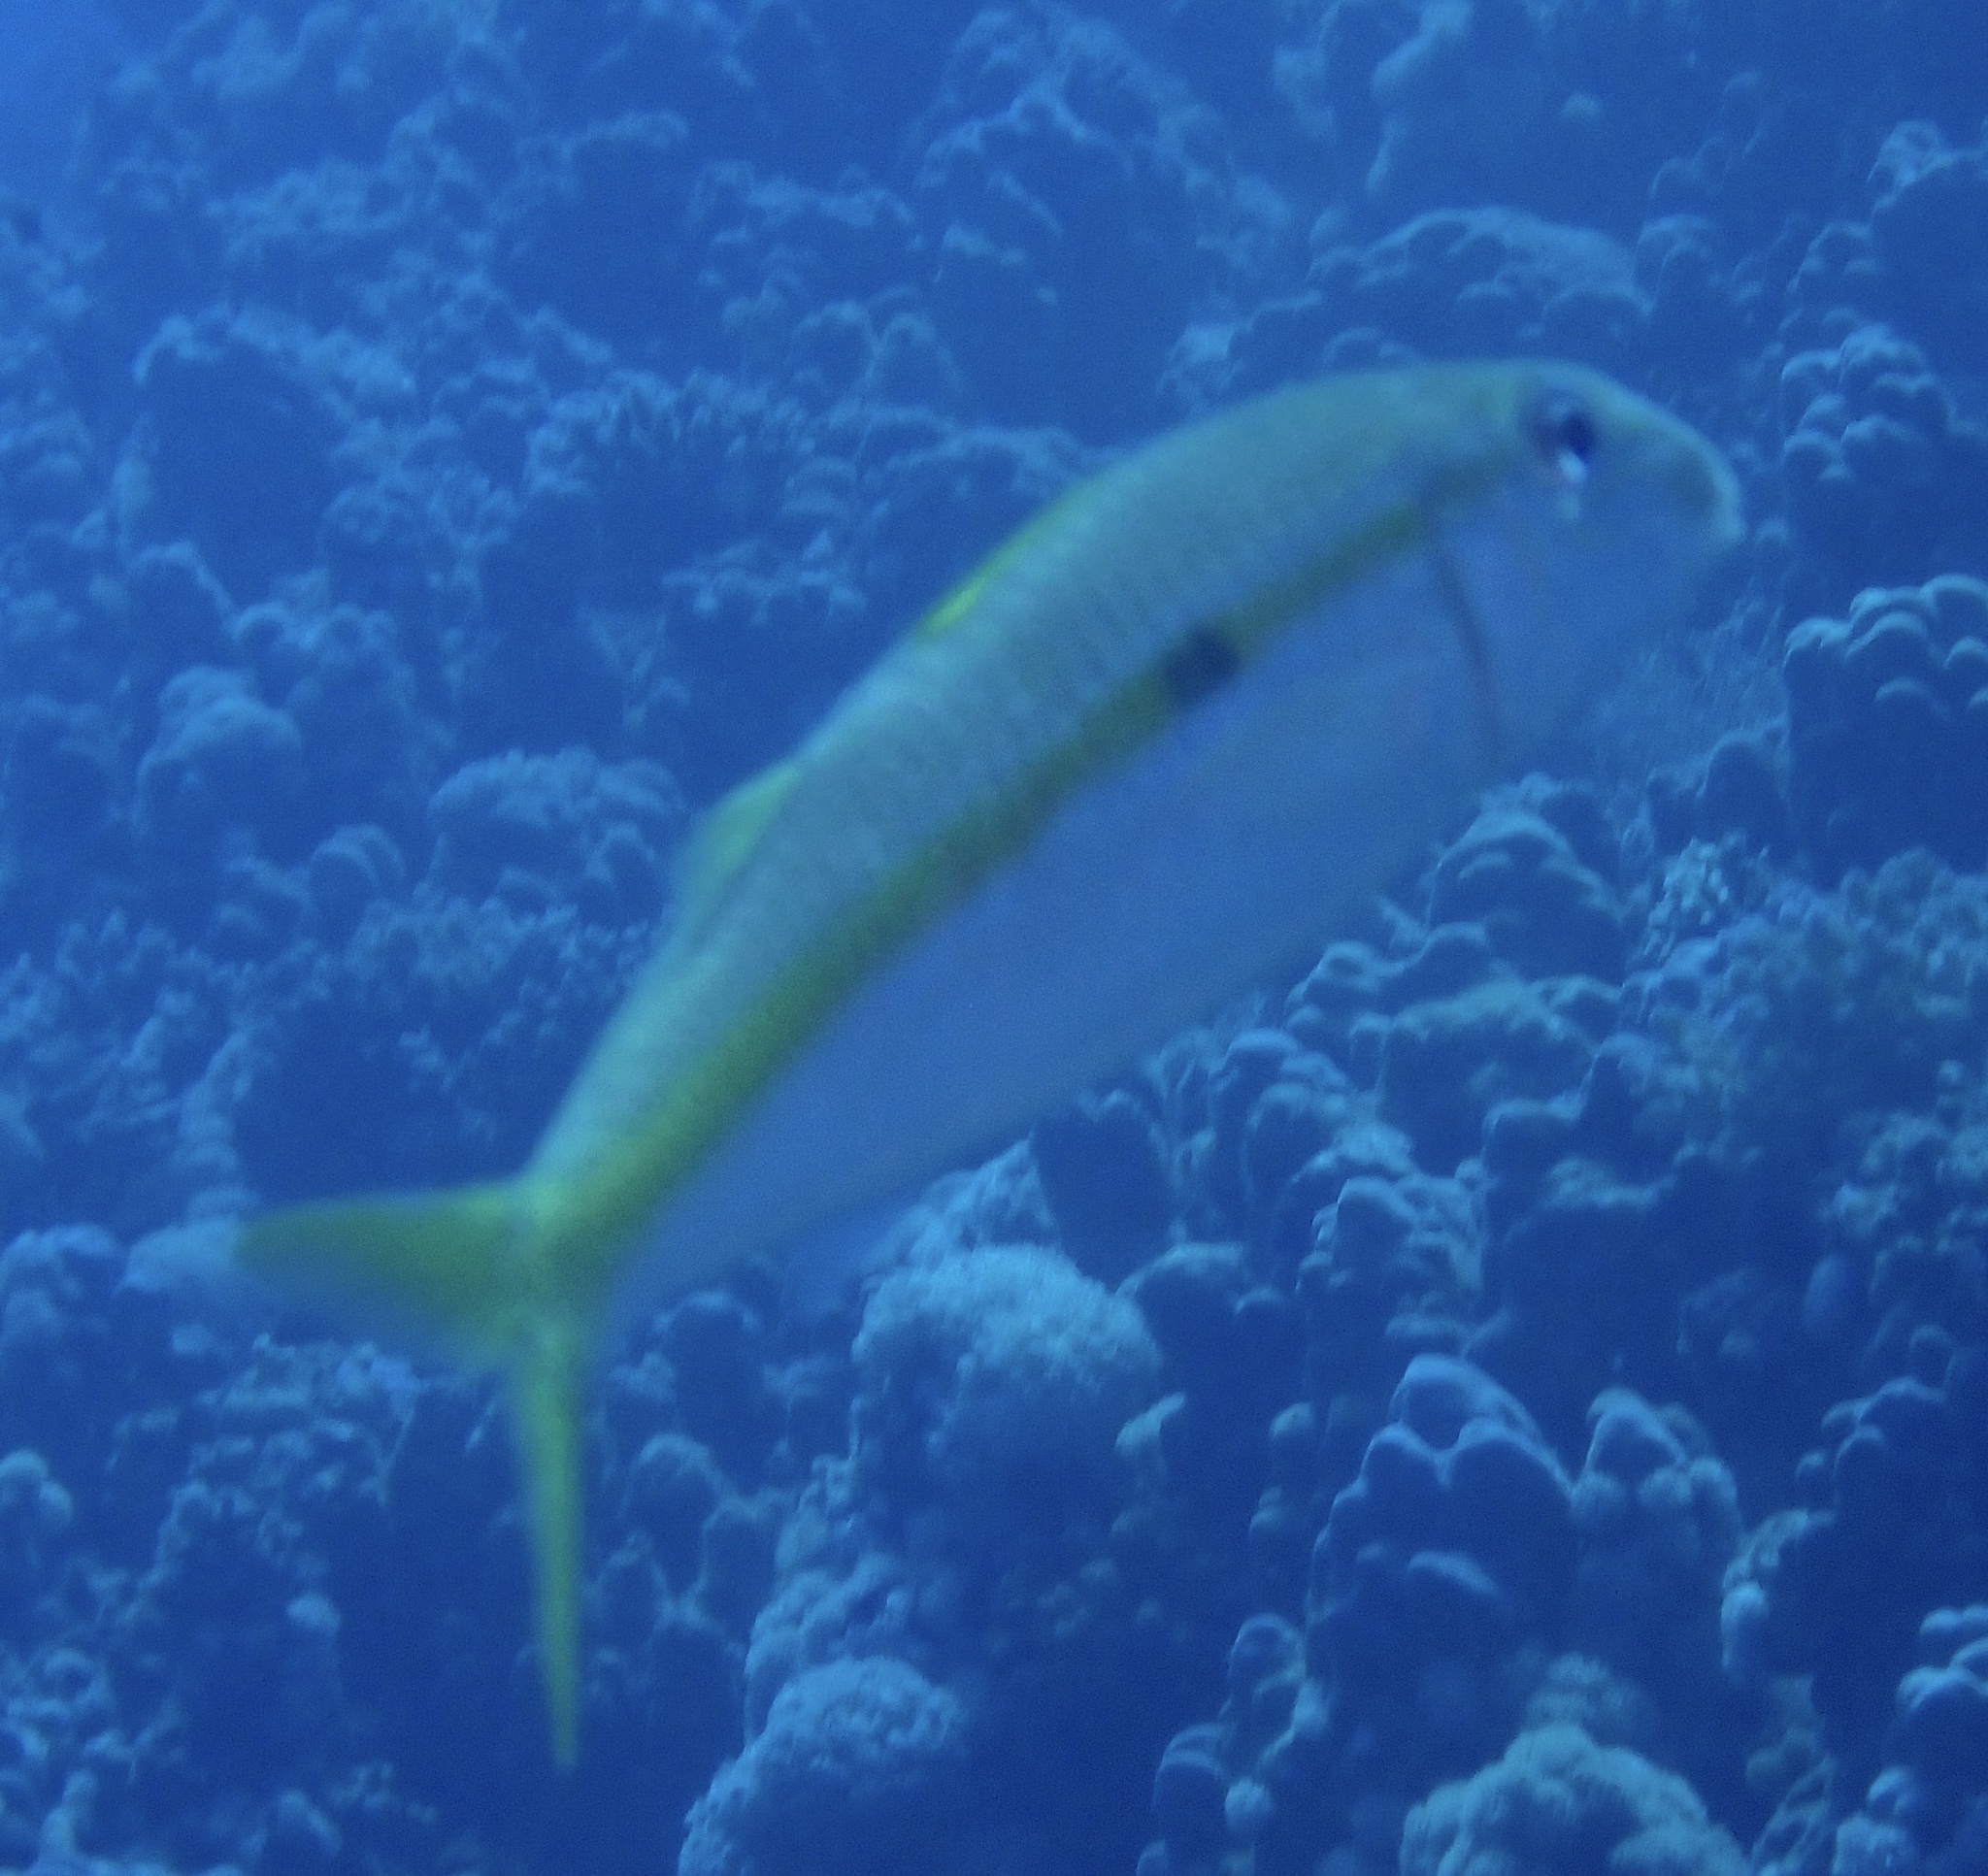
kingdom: Animalia
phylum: Chordata
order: Perciformes
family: Mullidae
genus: Mulloidichthys
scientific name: Mulloidichthys flavolineatus
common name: Yellowstripe goatfish
